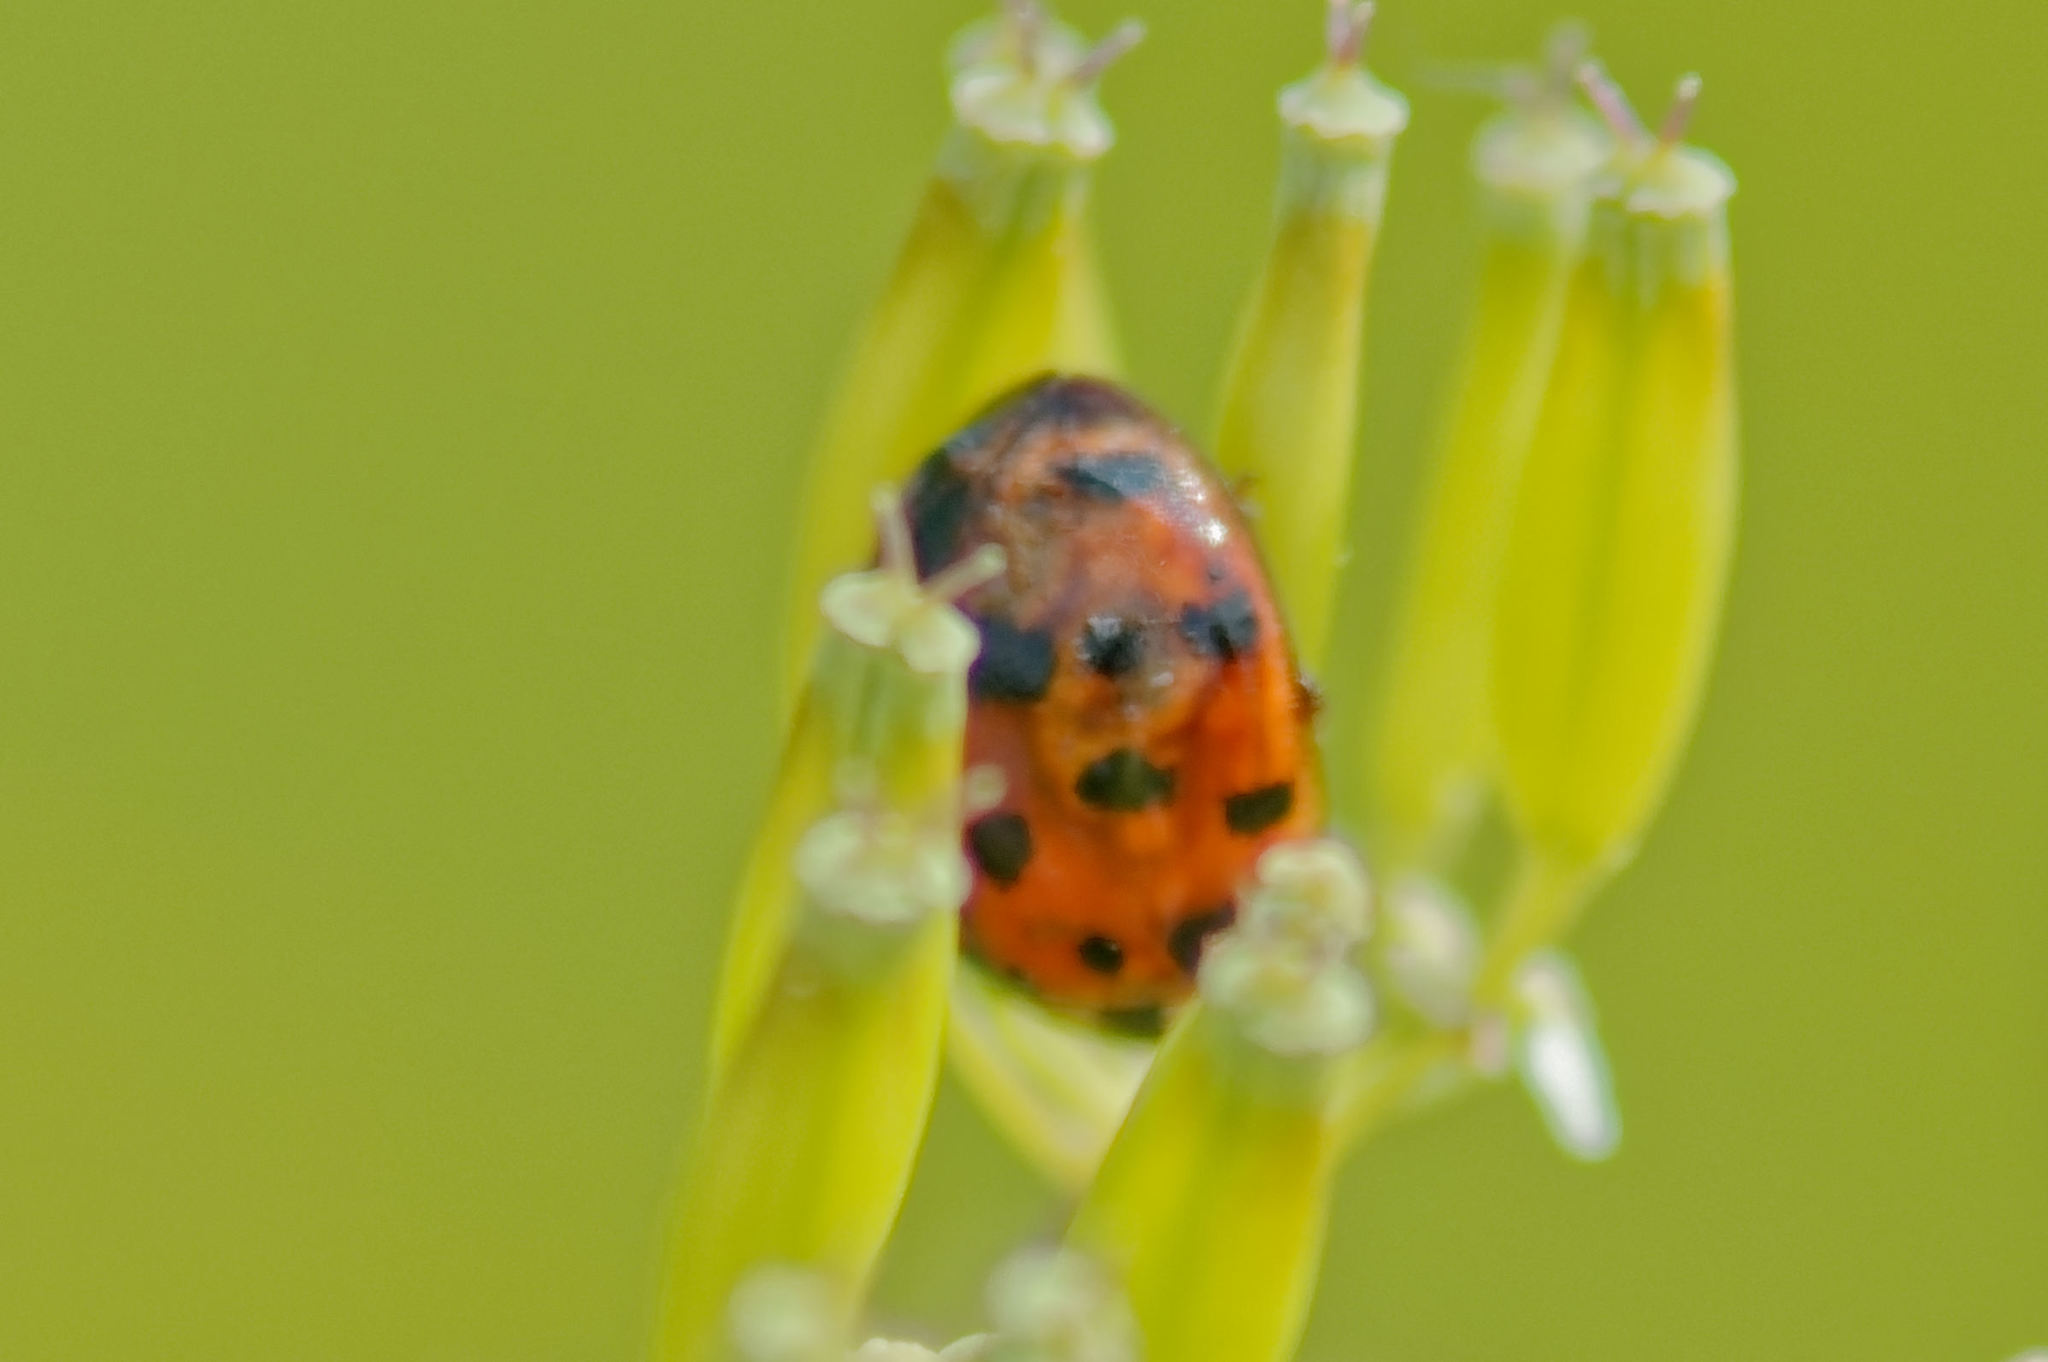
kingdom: Animalia
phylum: Arthropoda
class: Insecta
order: Coleoptera
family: Coccinellidae
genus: Harmonia
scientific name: Harmonia axyridis
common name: Harlequin ladybird
